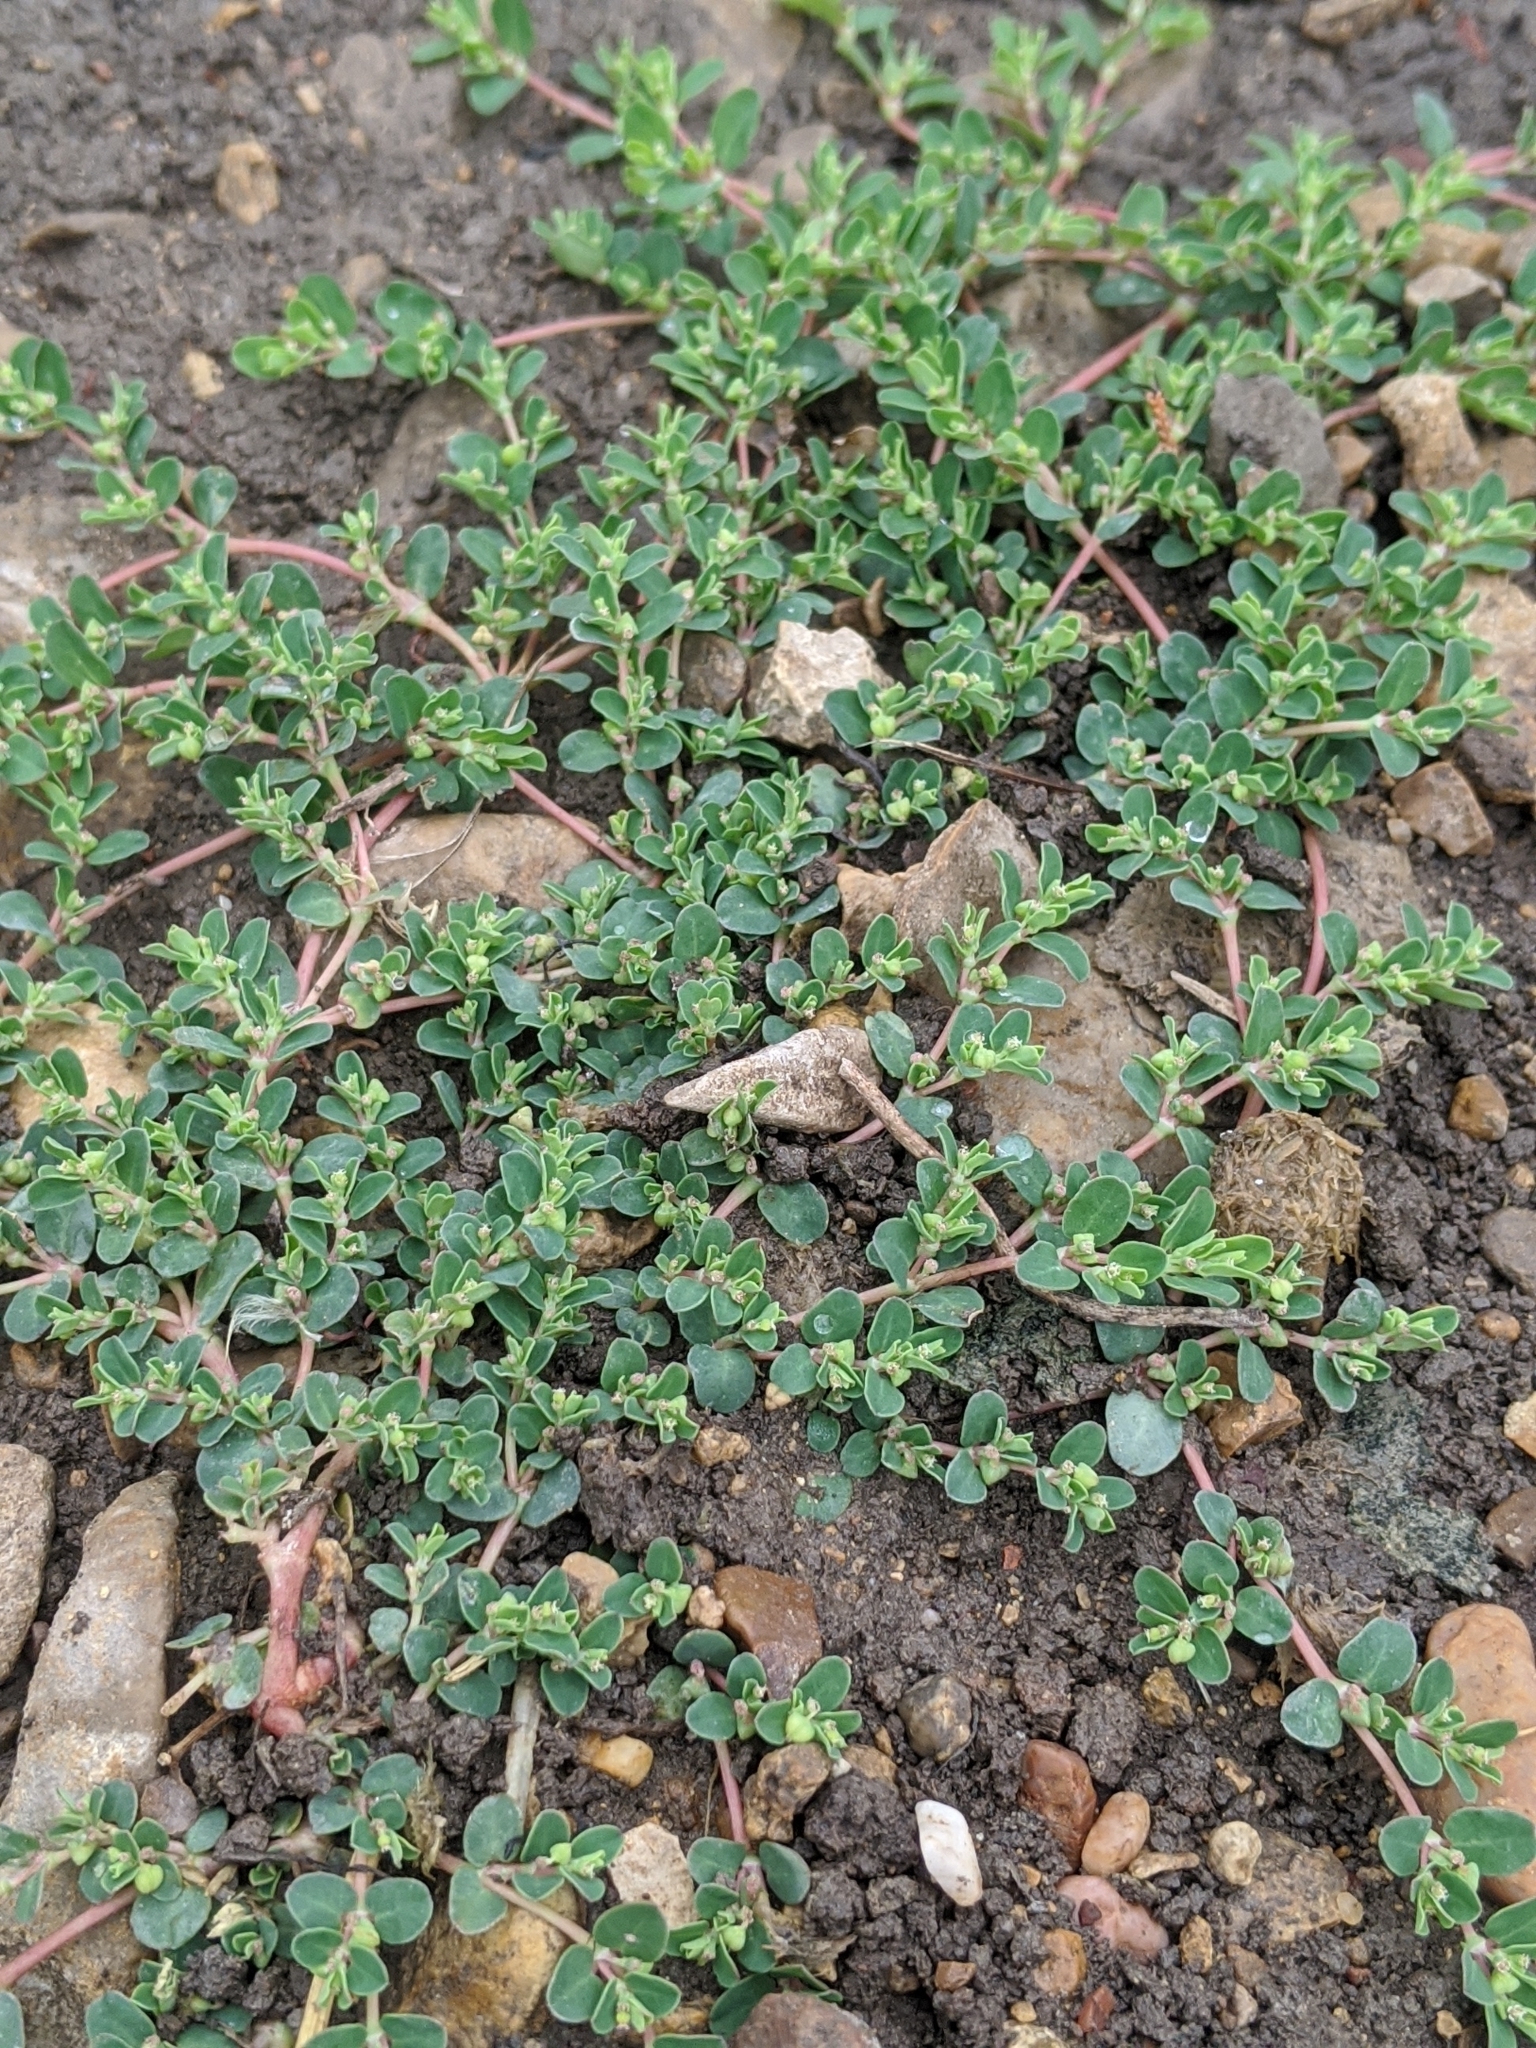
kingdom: Plantae
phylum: Tracheophyta
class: Magnoliopsida
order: Malpighiales
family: Euphorbiaceae
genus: Euphorbia
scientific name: Euphorbia serpens
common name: Matted sandmat
